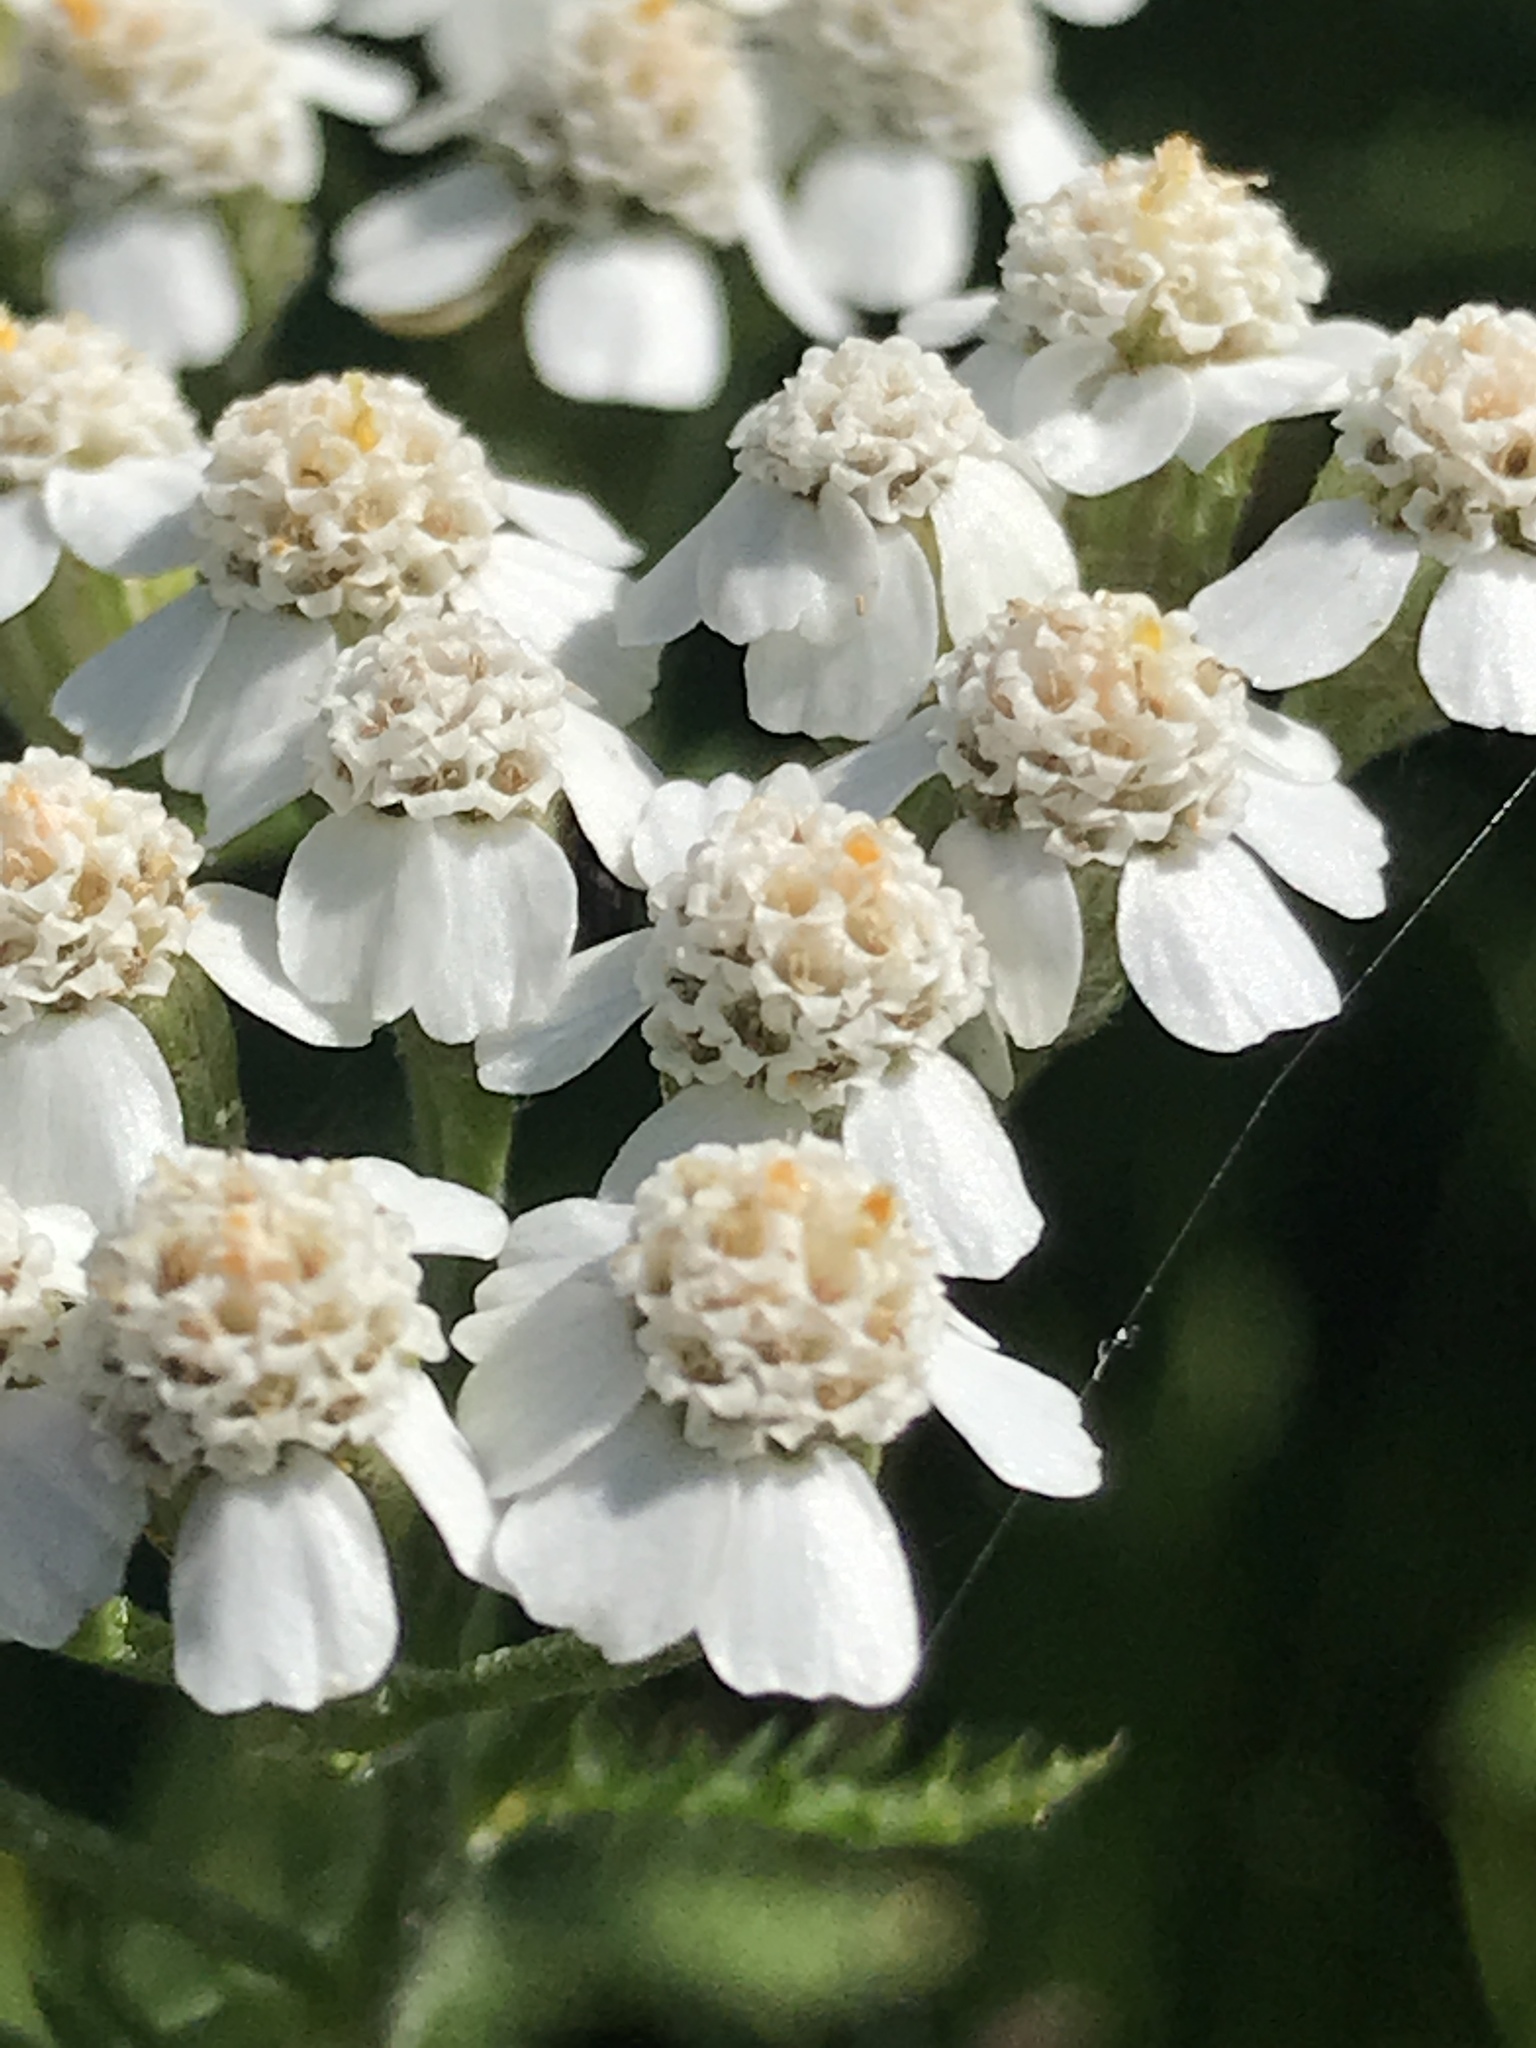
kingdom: Plantae
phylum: Tracheophyta
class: Magnoliopsida
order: Asterales
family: Asteraceae
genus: Achillea
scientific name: Achillea millefolium
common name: Yarrow
